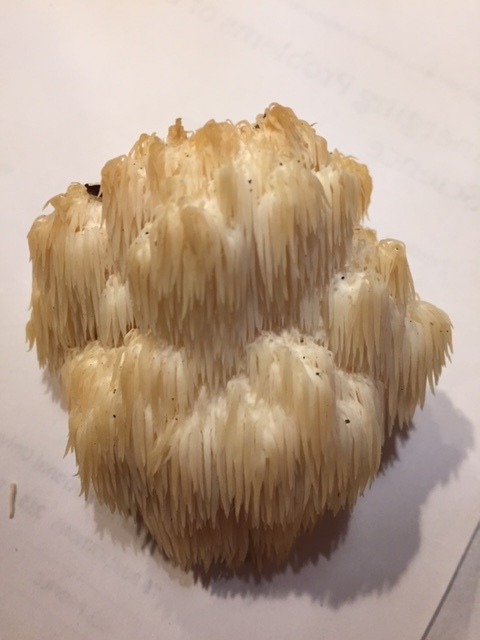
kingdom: Fungi
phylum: Basidiomycota
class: Agaricomycetes
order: Russulales
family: Hericiaceae
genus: Hericium
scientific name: Hericium americanum
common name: Bear's head tooth
